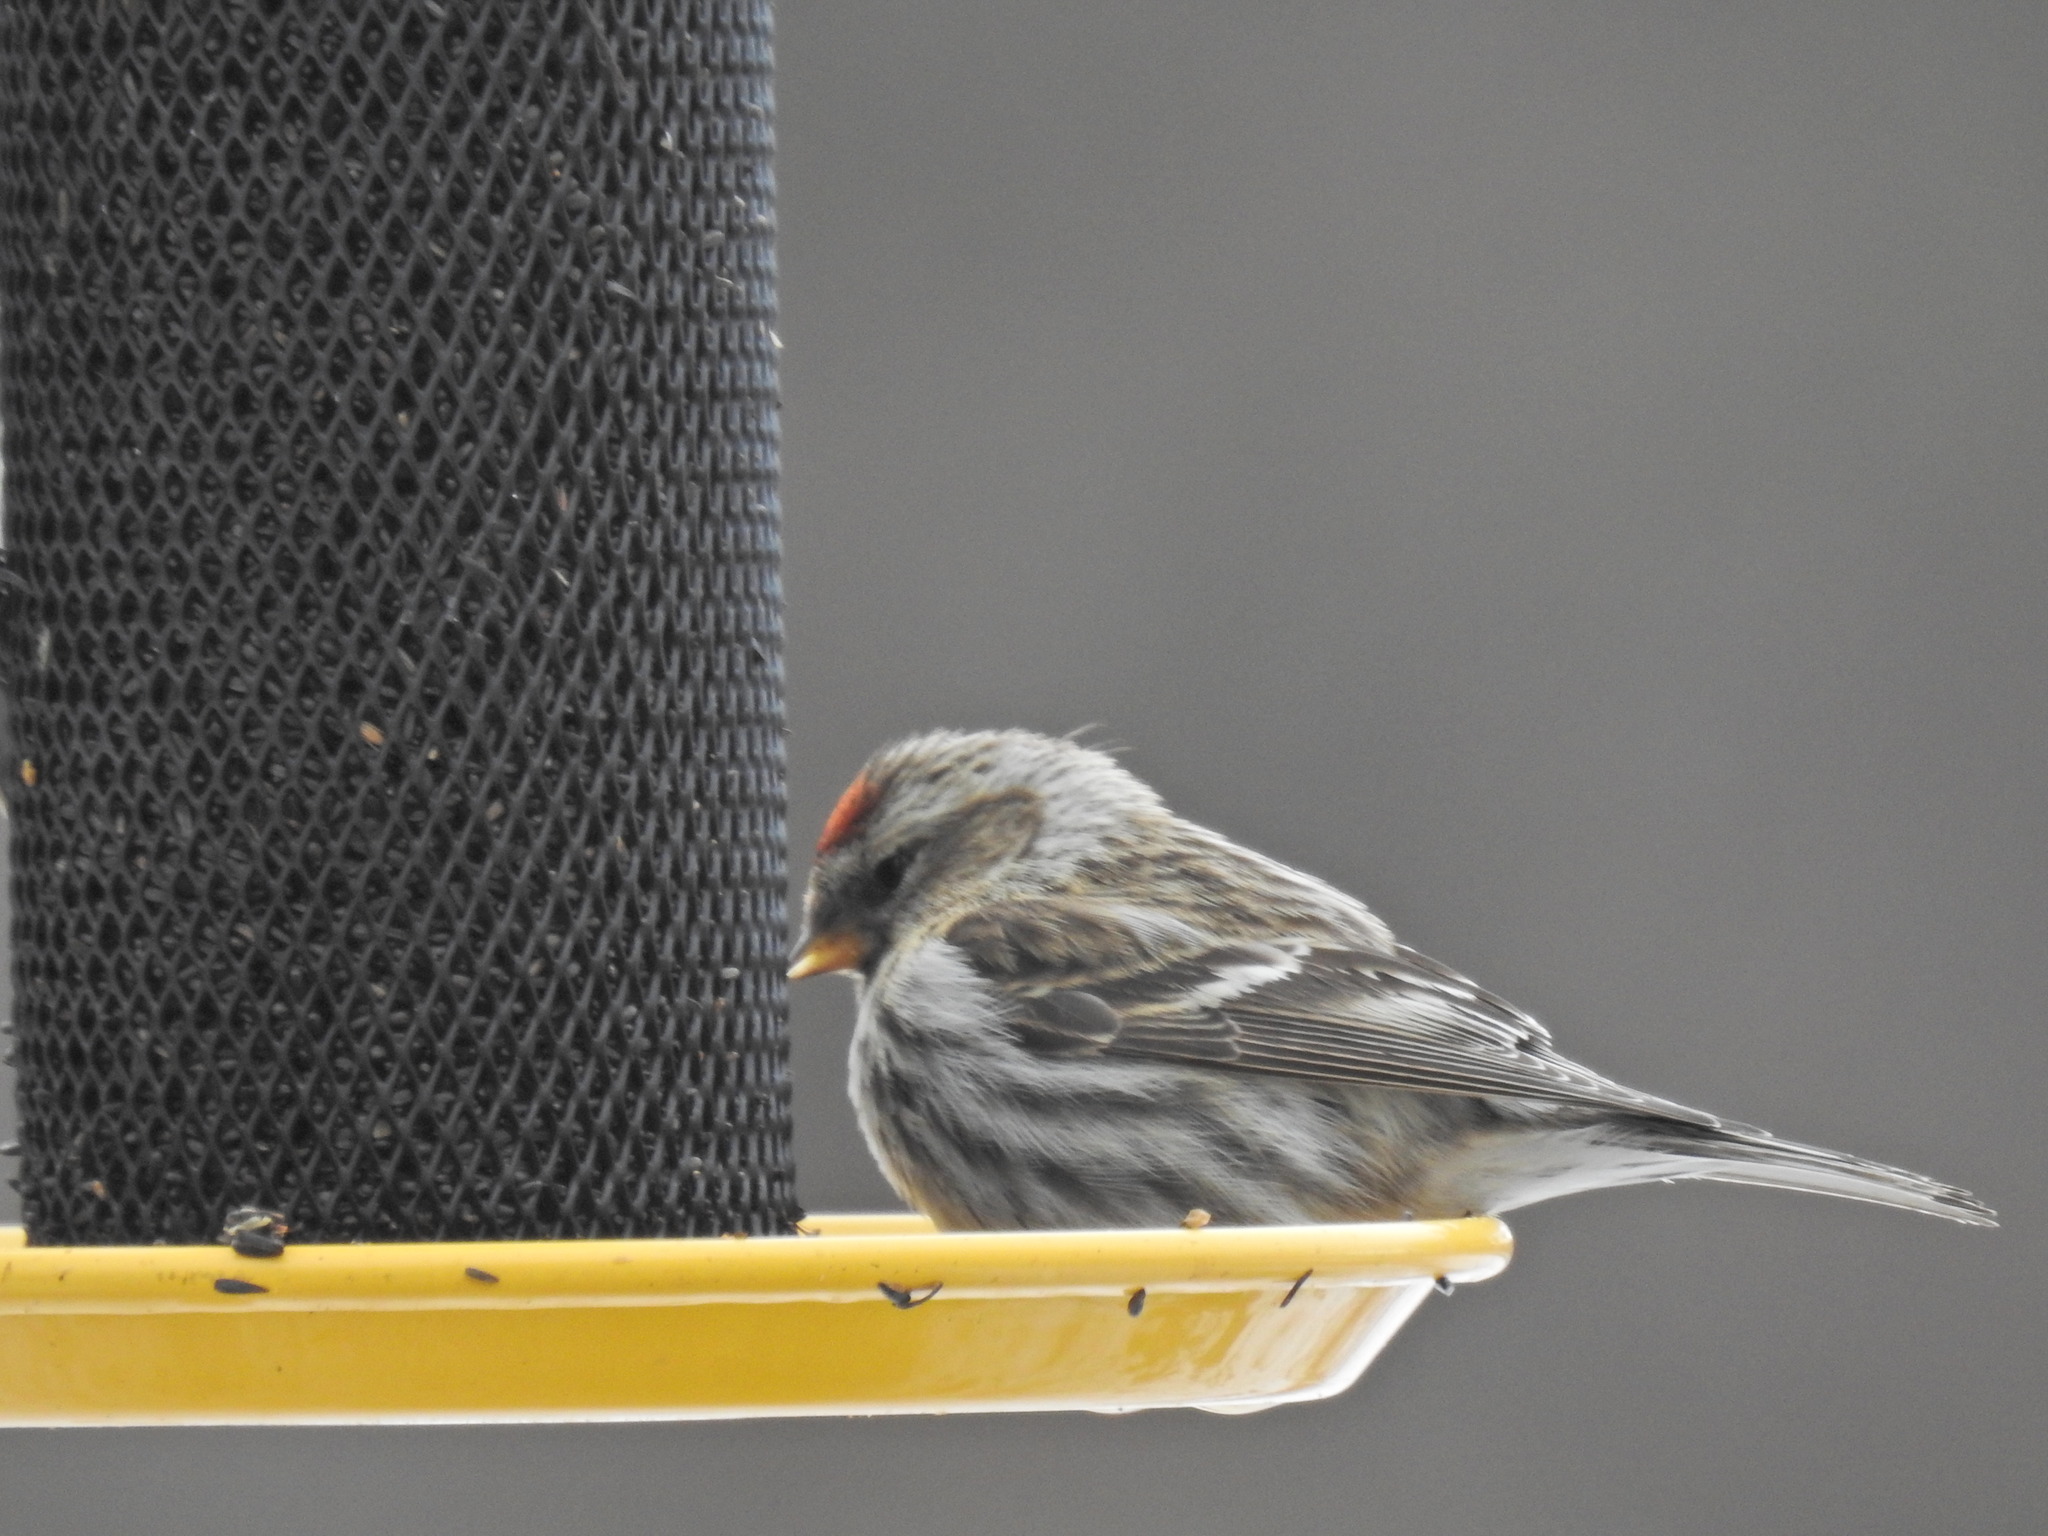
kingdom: Animalia
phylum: Chordata
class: Aves
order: Passeriformes
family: Fringillidae
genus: Acanthis
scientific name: Acanthis flammea
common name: Common redpoll
